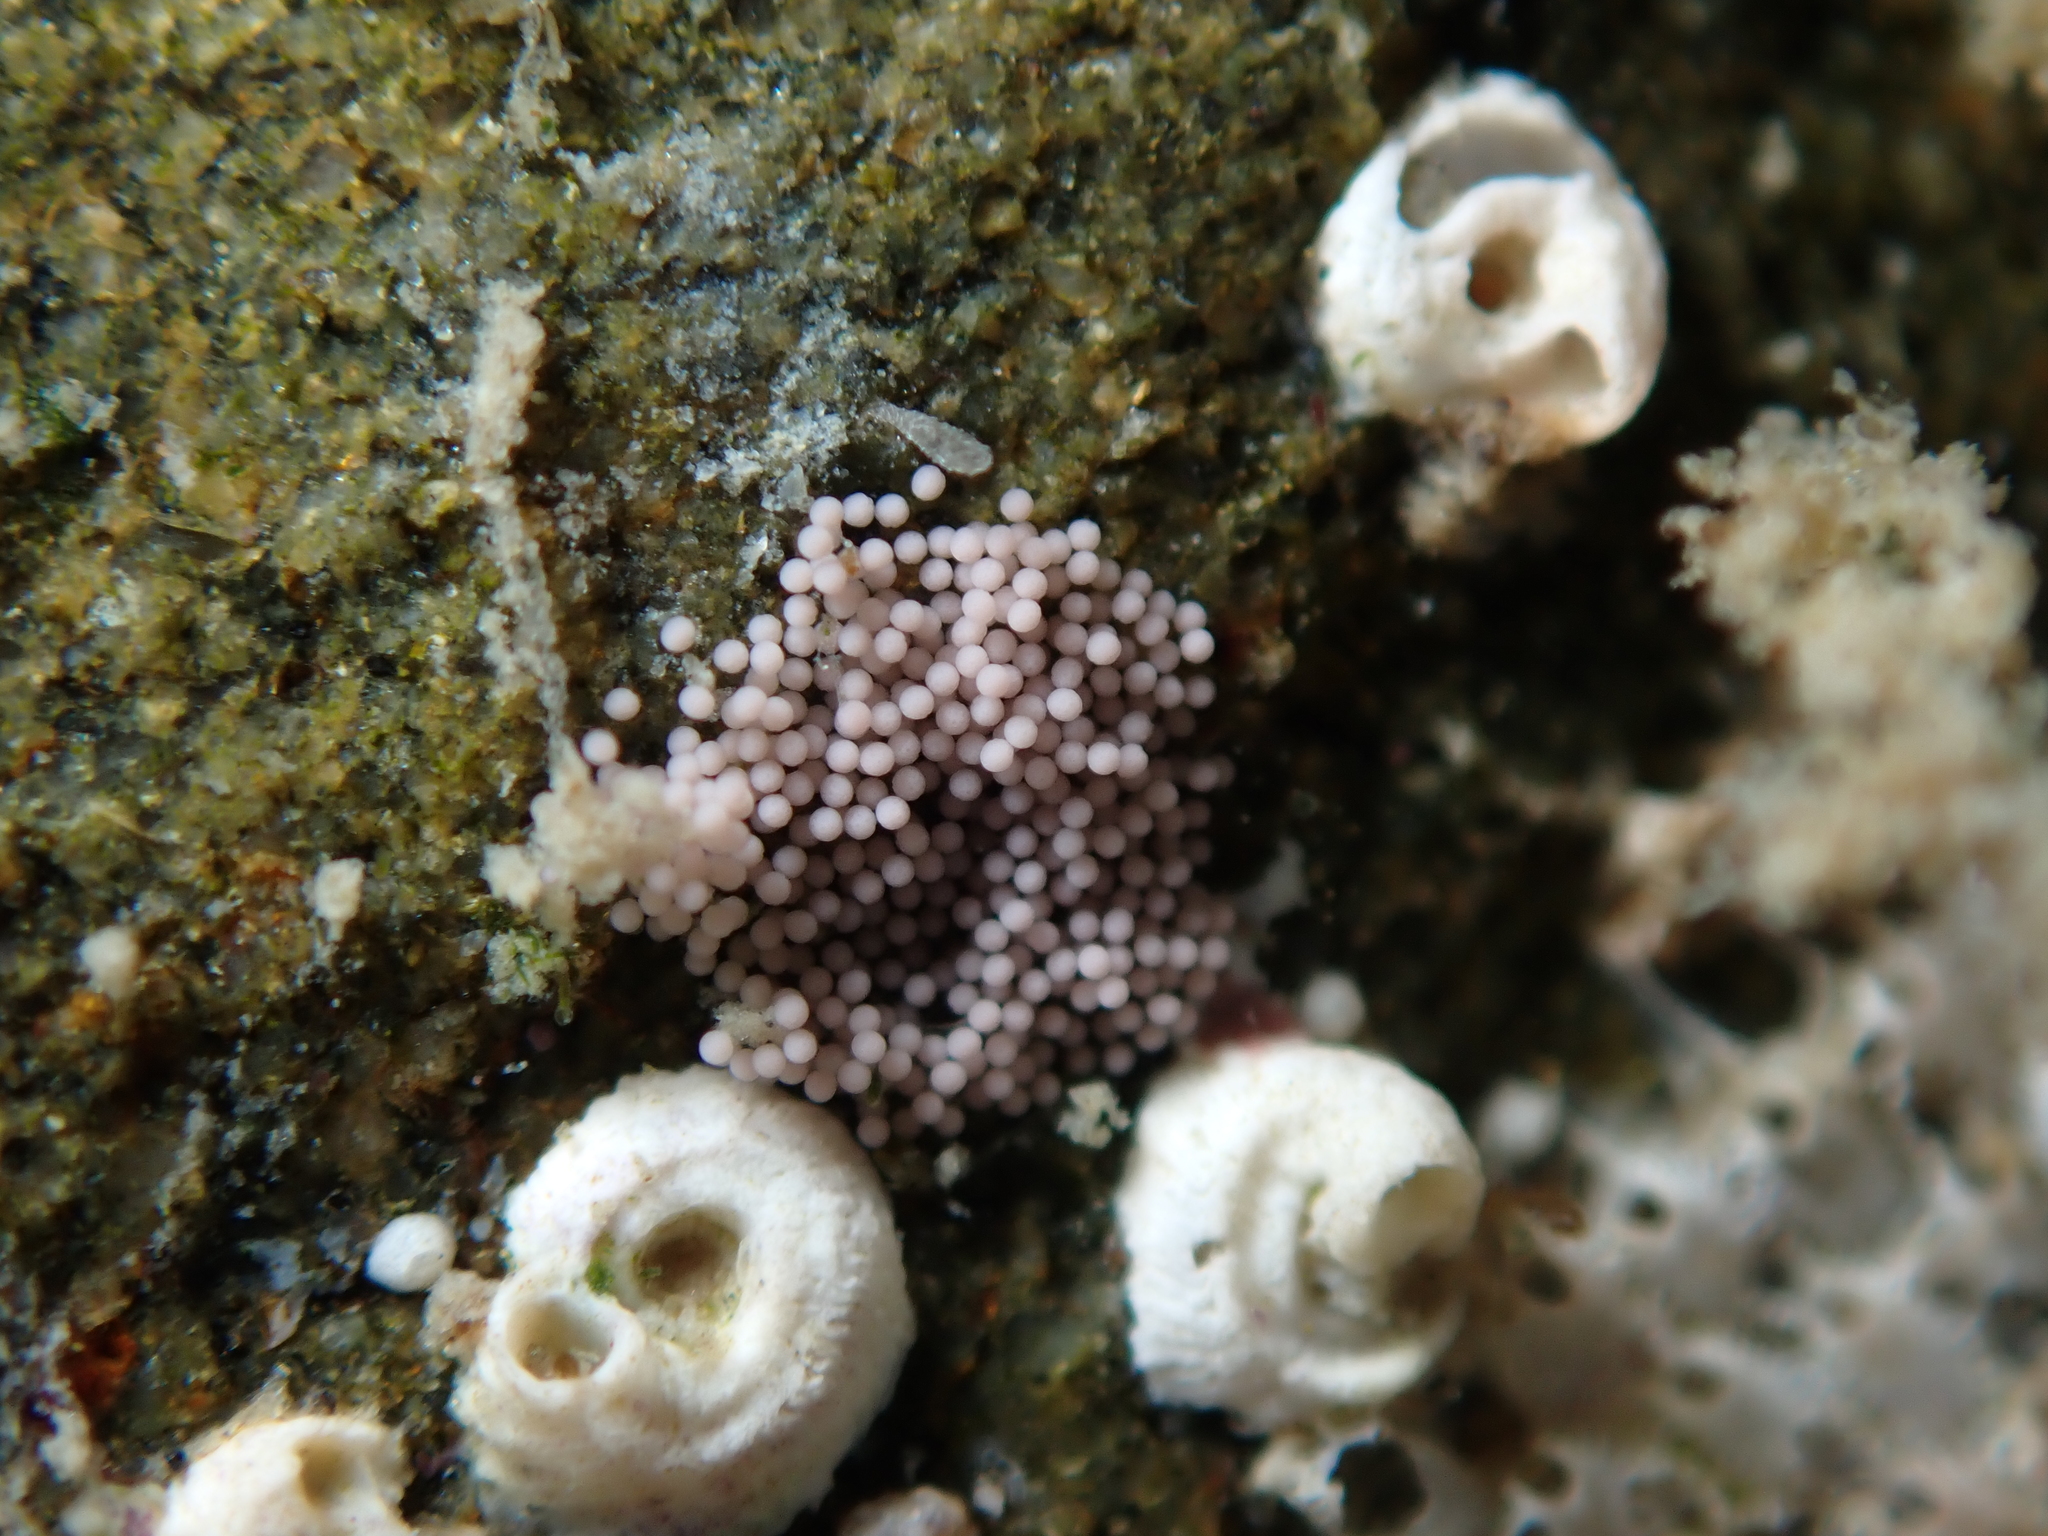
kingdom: Animalia
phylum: Mollusca
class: Gastropoda
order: Nudibranchia
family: Okadaiidae
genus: Vayssierea
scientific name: Vayssierea cinnabarea
